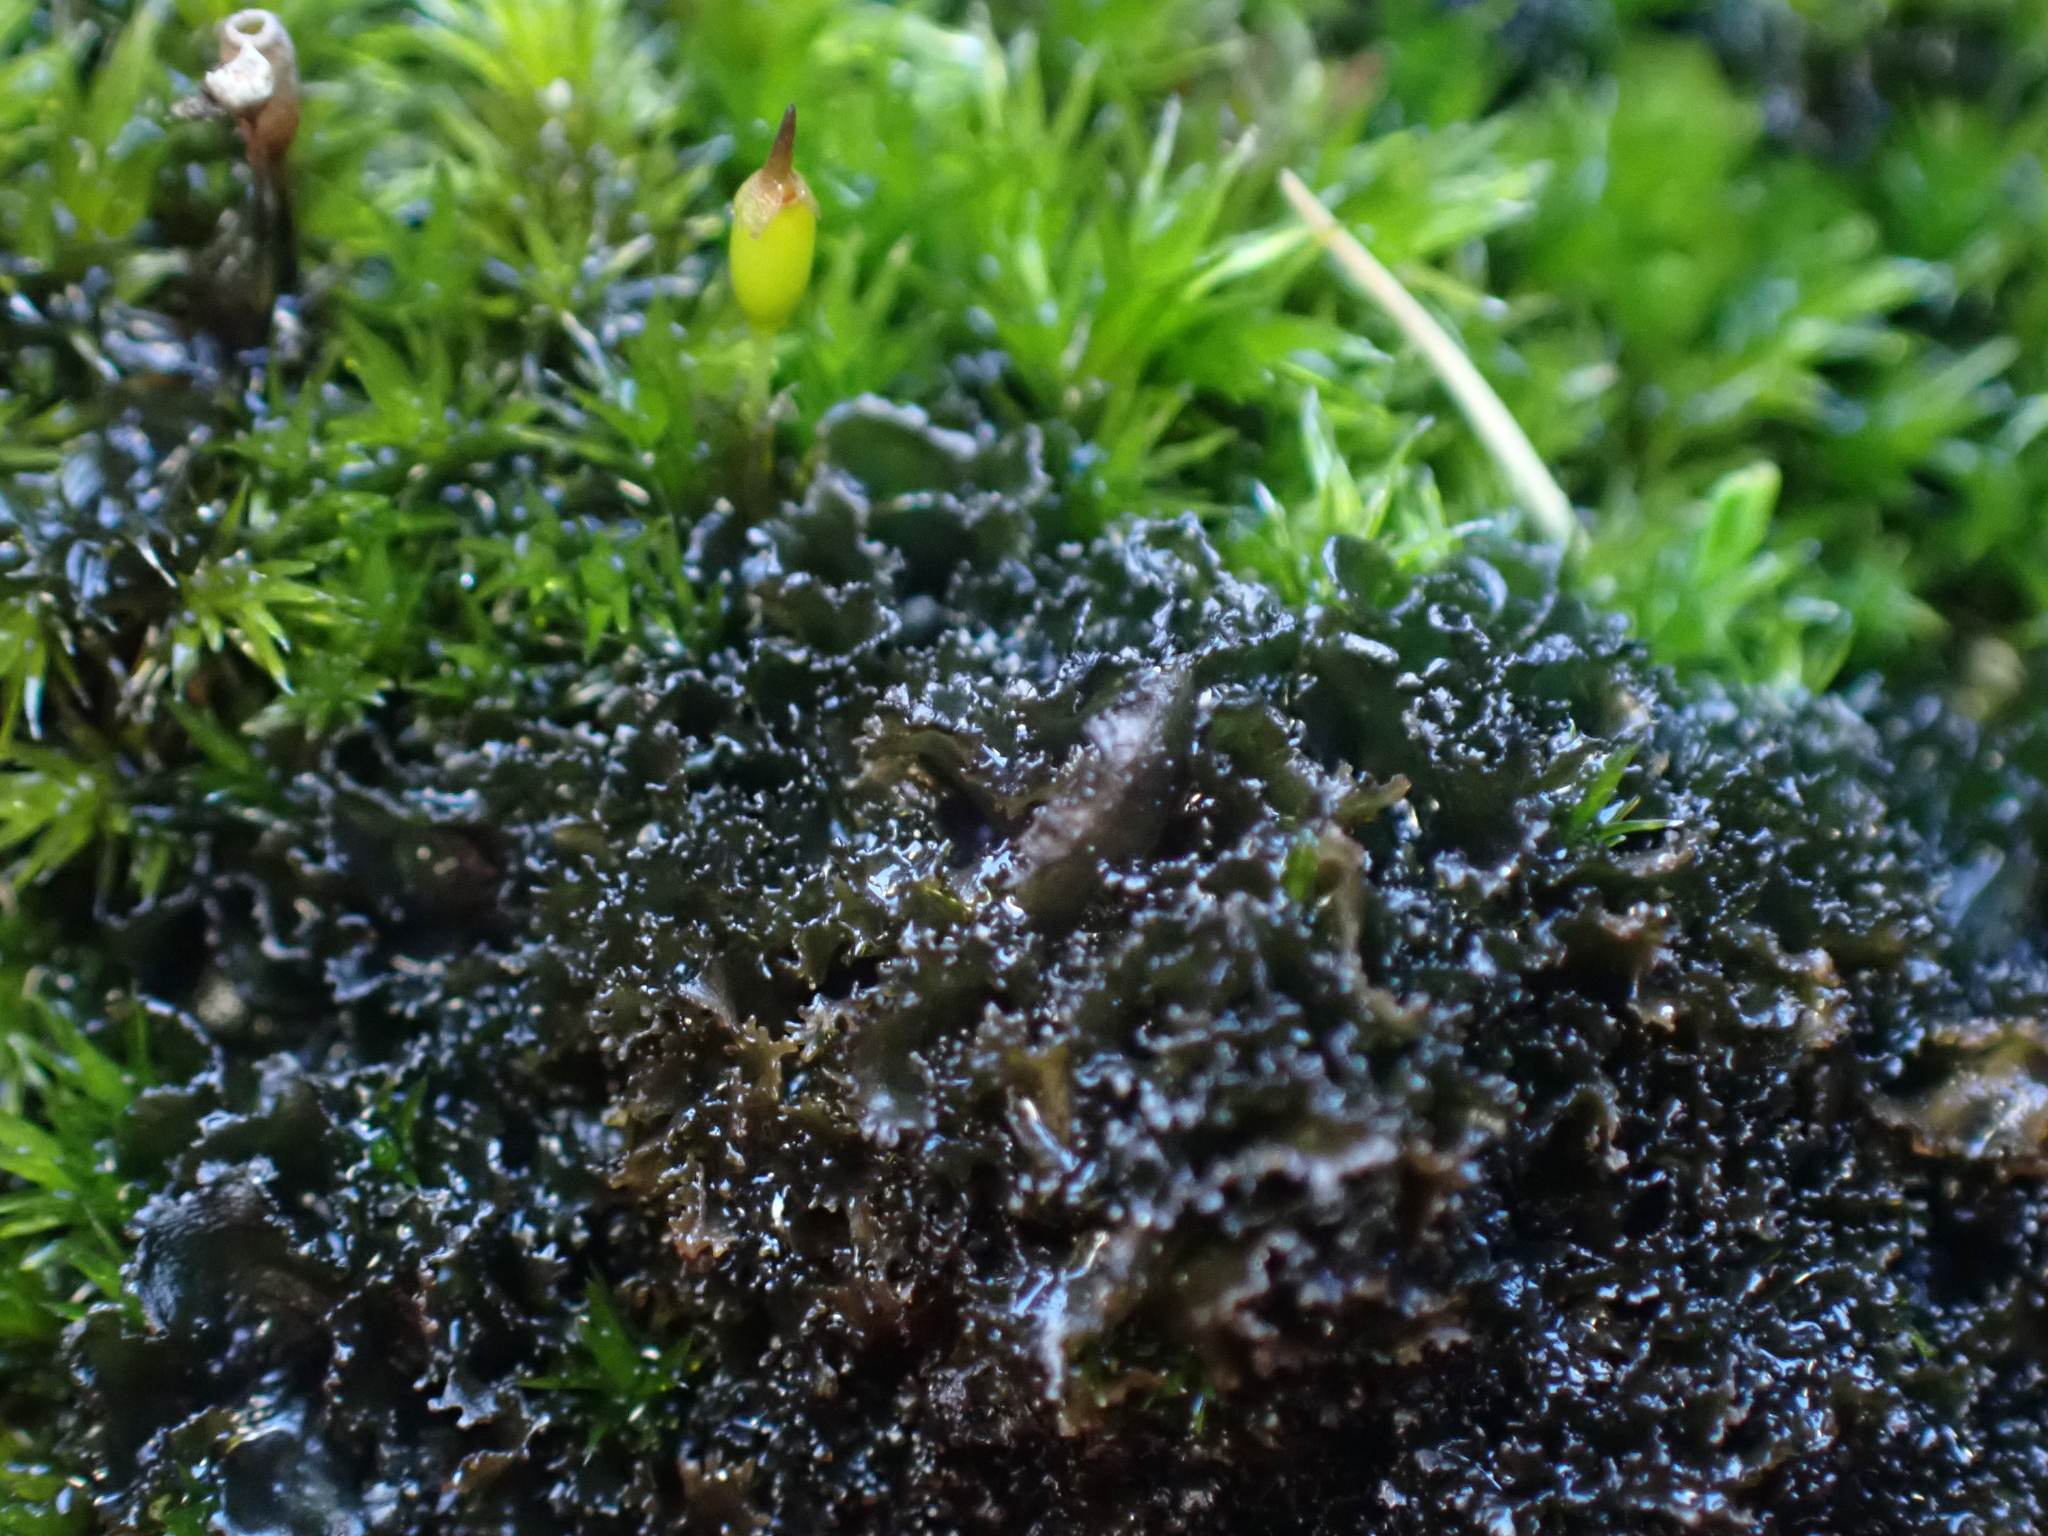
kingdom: Fungi
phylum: Ascomycota
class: Lecanoromycetes
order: Peltigerales
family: Collemataceae
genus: Scytinium
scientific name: Scytinium lichenoides
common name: Tattered jellyskin lichen
